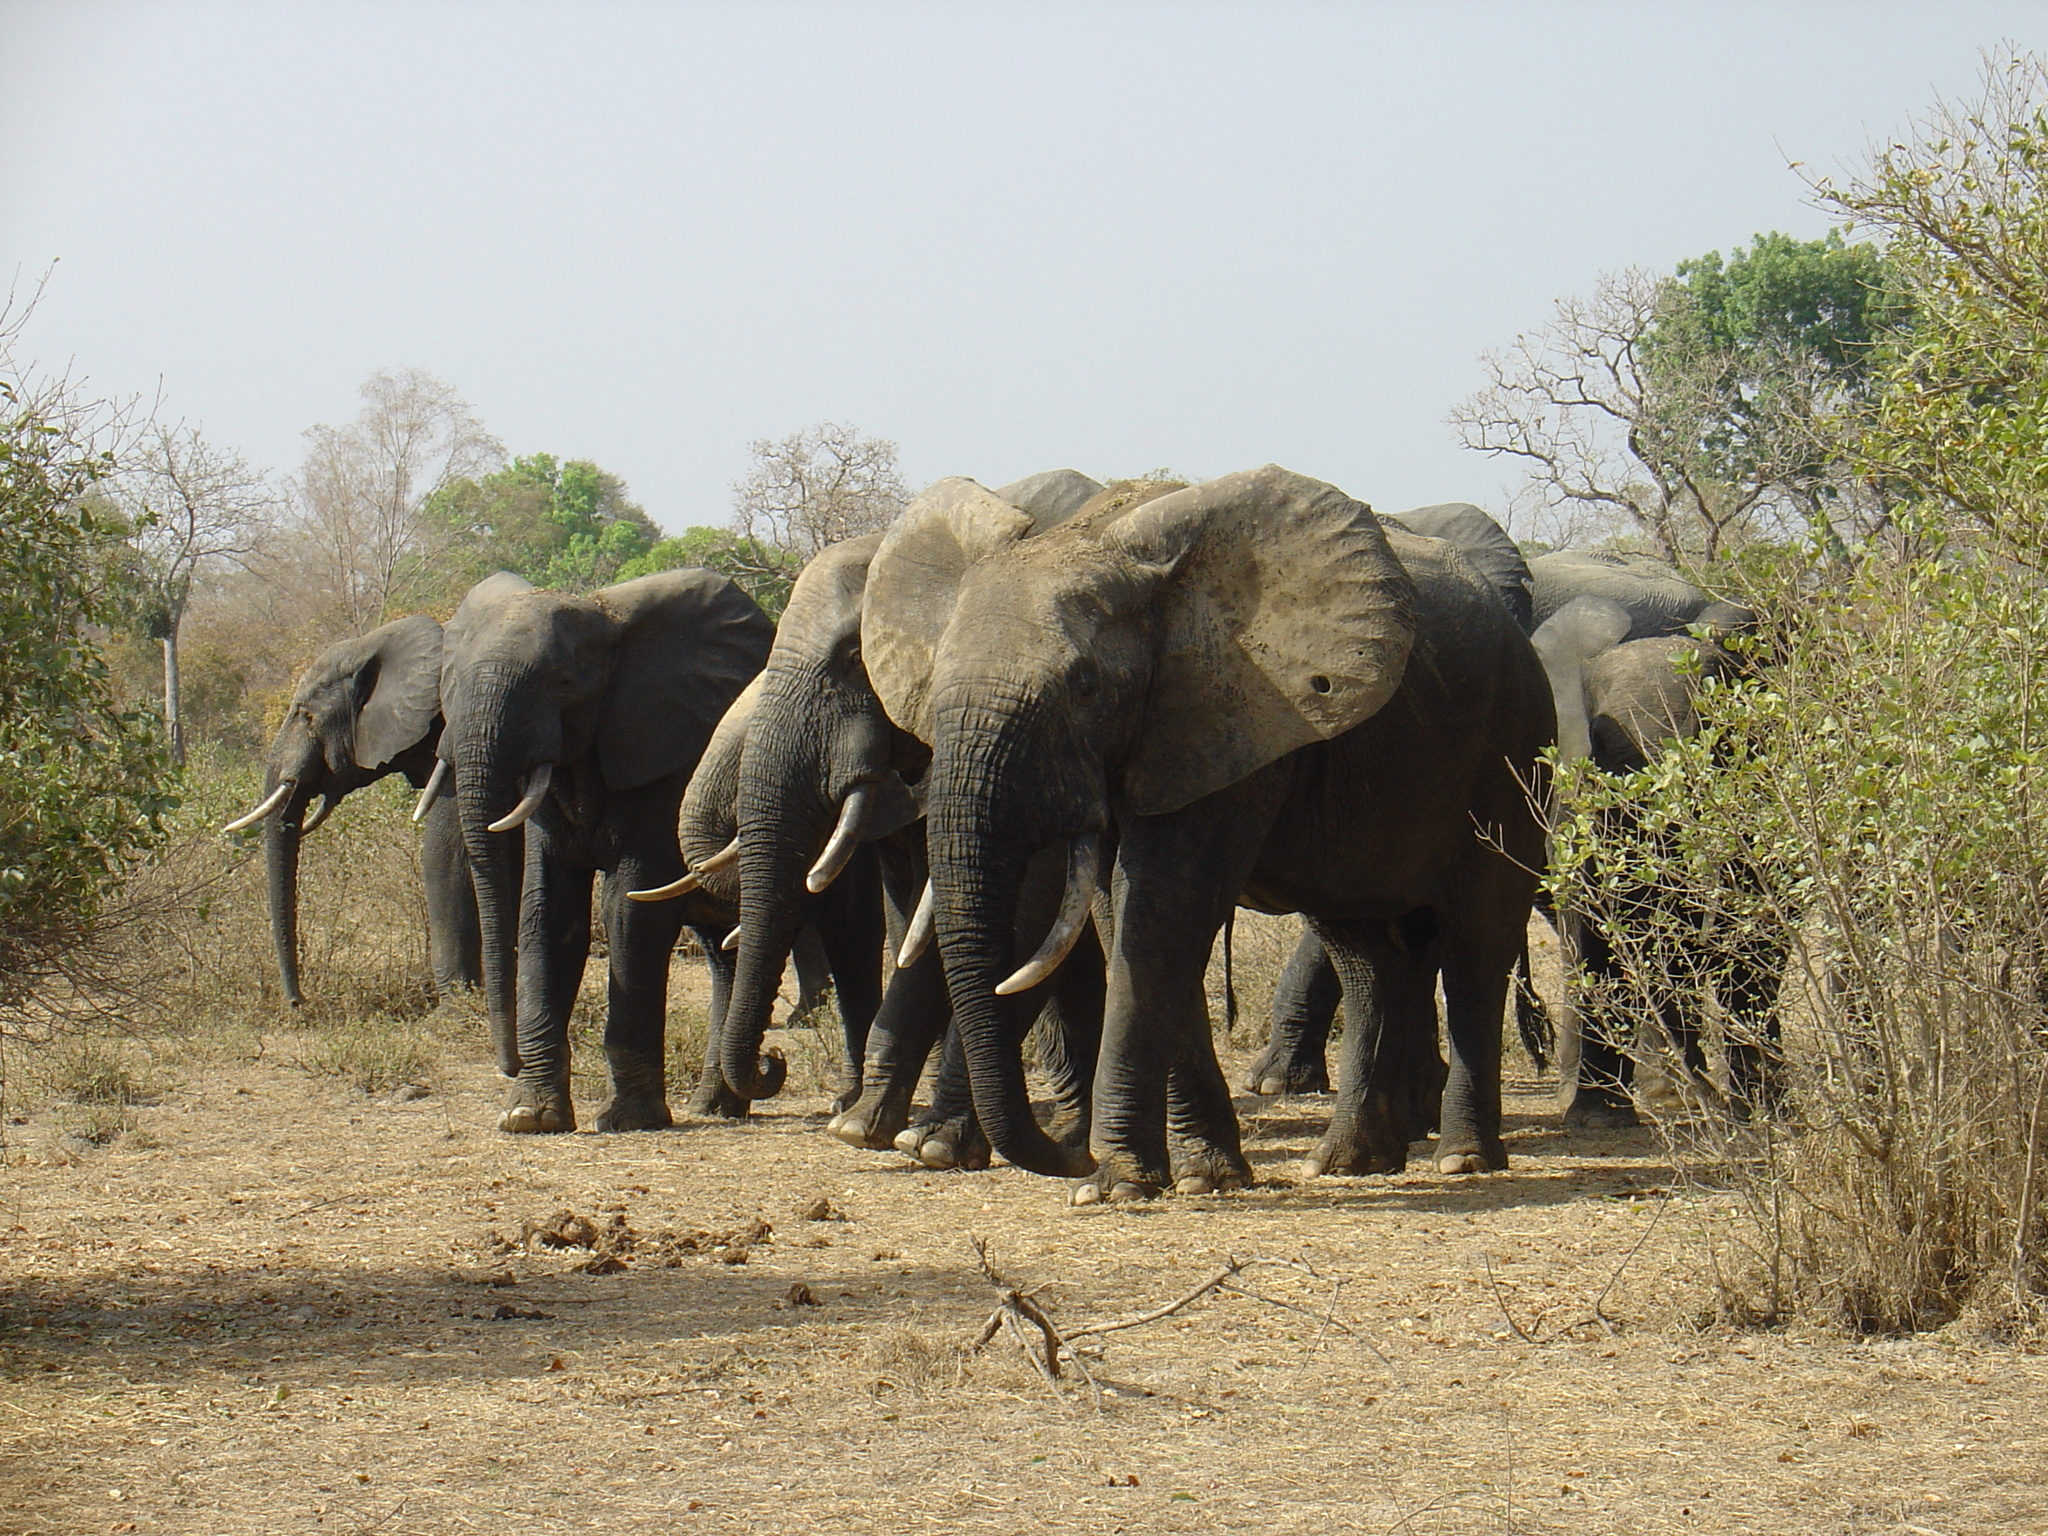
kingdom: Animalia
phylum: Chordata
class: Mammalia
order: Proboscidea
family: Elephantidae
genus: Loxodonta
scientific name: Loxodonta cyclotis
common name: African forest elephant
